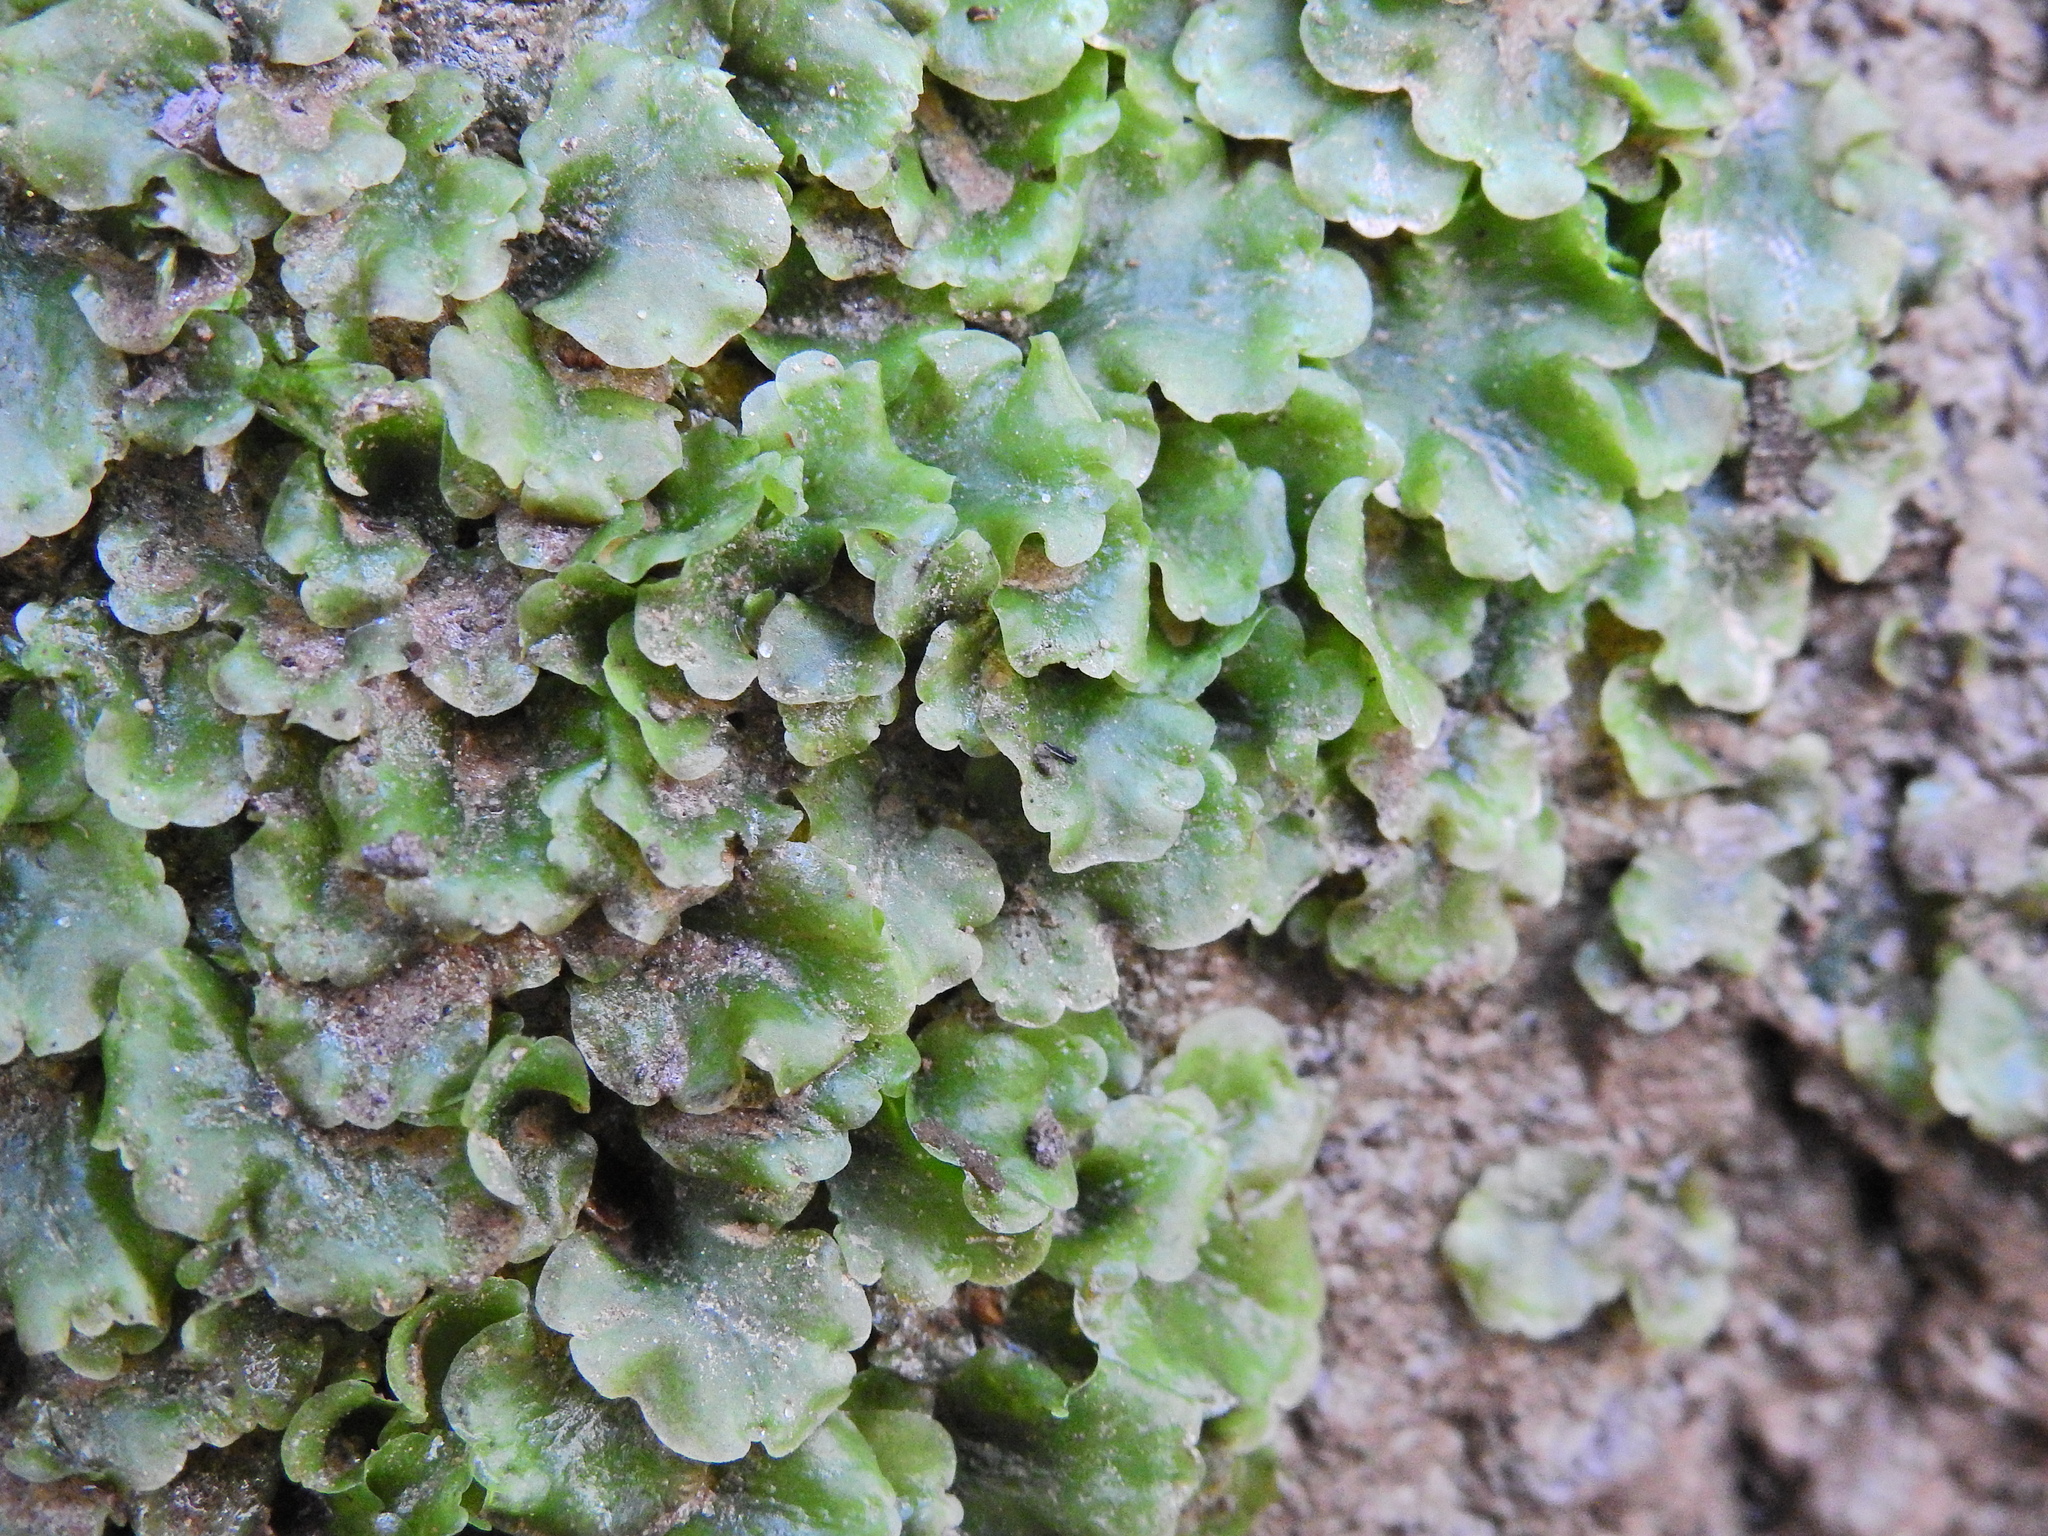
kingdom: Plantae
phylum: Marchantiophyta
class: Jungermanniopsida
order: Pelliales
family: Pelliaceae
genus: Pellia
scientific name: Pellia epiphylla
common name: Common pellia
